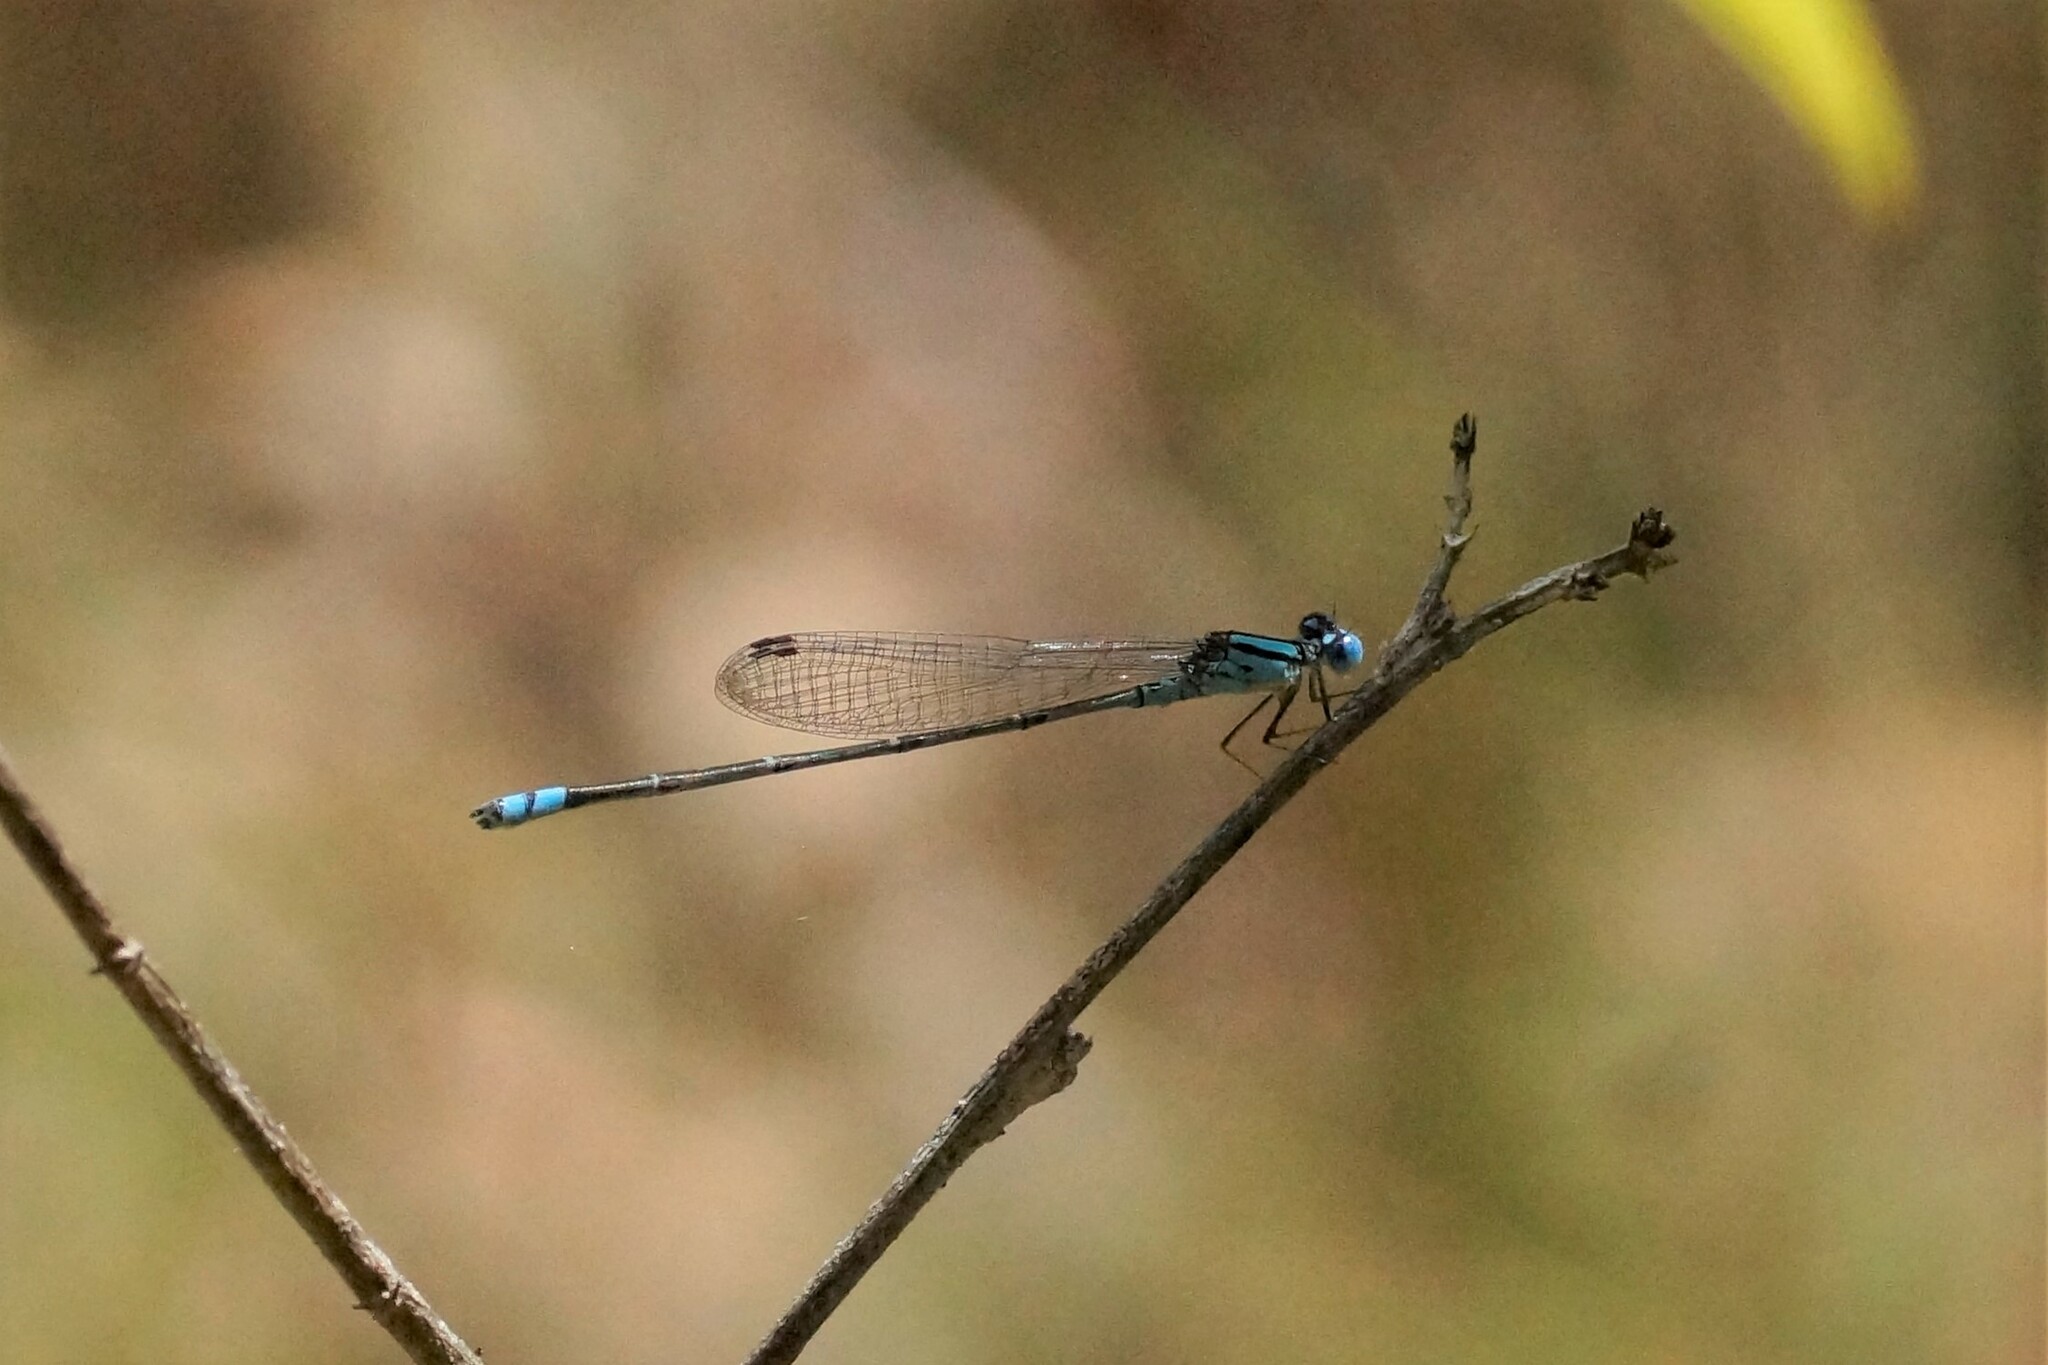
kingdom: Animalia
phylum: Arthropoda
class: Insecta
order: Odonata
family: Coenagrionidae
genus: Pseudagrion
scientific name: Pseudagrion microcephalum
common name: Blue riverdamsel
